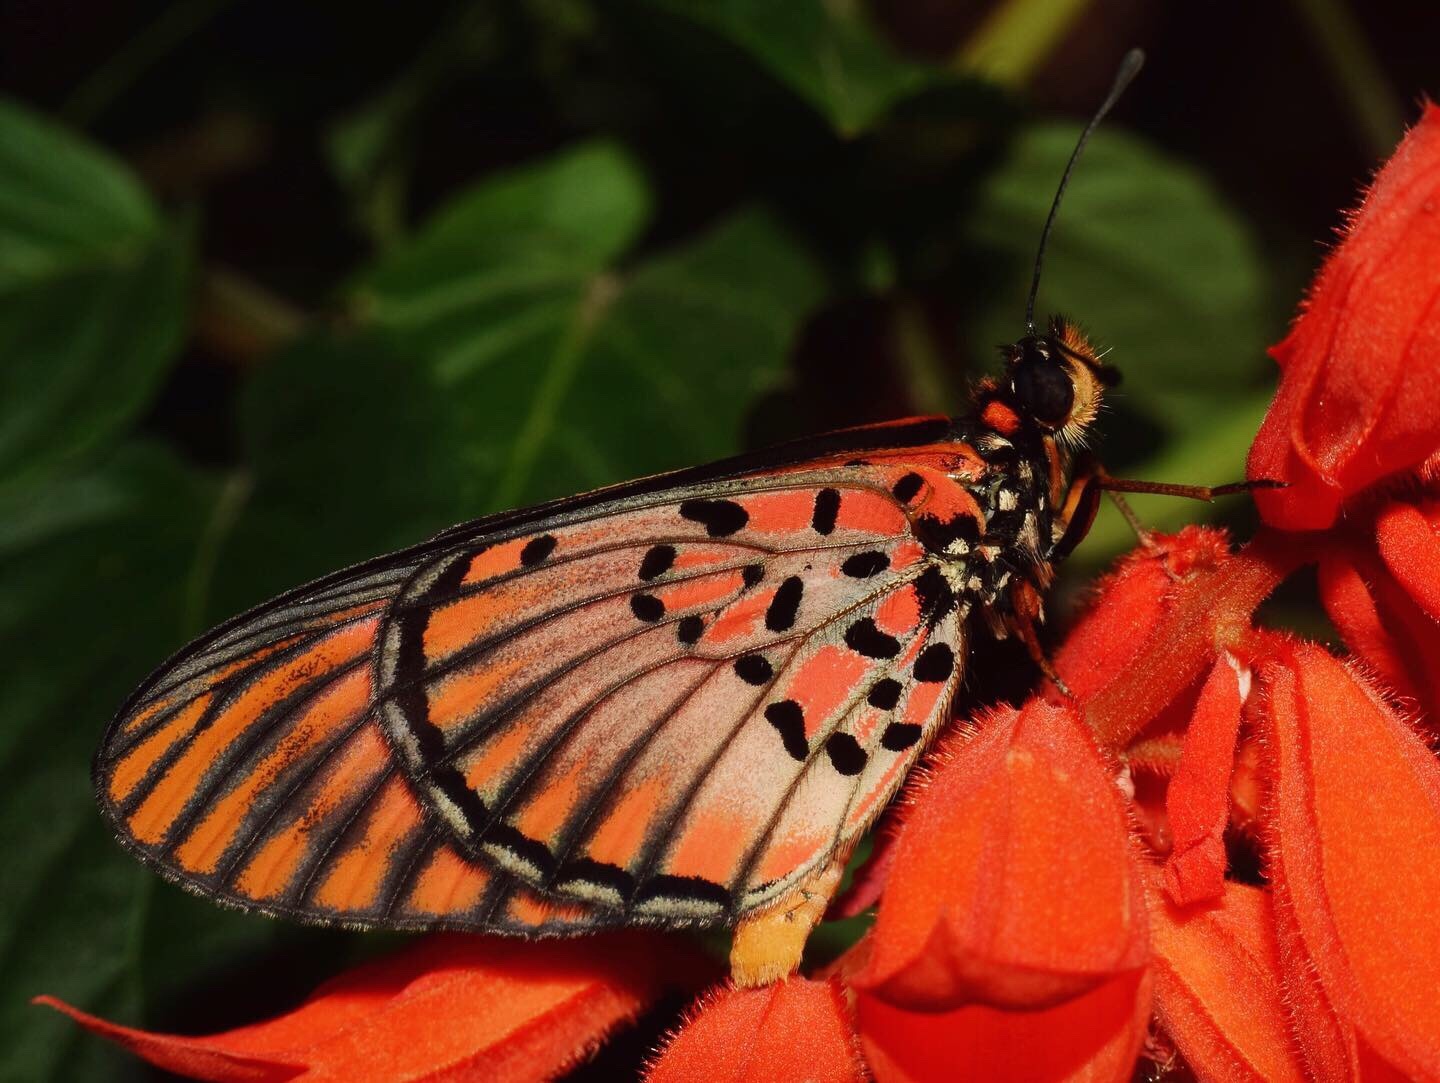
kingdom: Animalia
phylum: Arthropoda
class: Insecta
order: Lepidoptera
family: Nymphalidae
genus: Rubraea
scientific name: Rubraea
